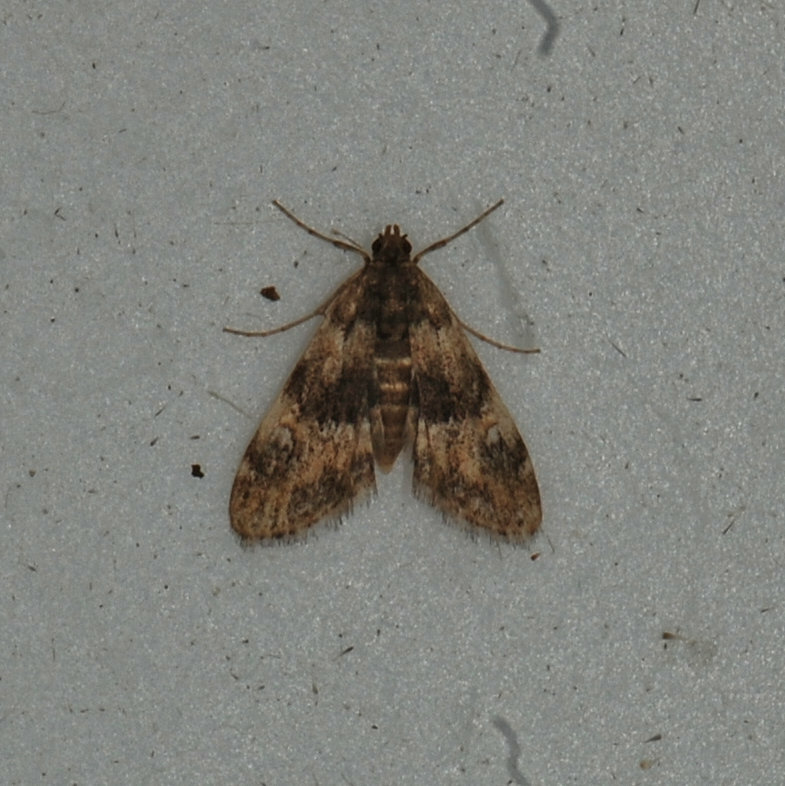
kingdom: Animalia
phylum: Arthropoda
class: Insecta
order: Lepidoptera
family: Crambidae
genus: Elophila
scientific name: Elophila obliteralis
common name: Waterlily leafcutter moth
